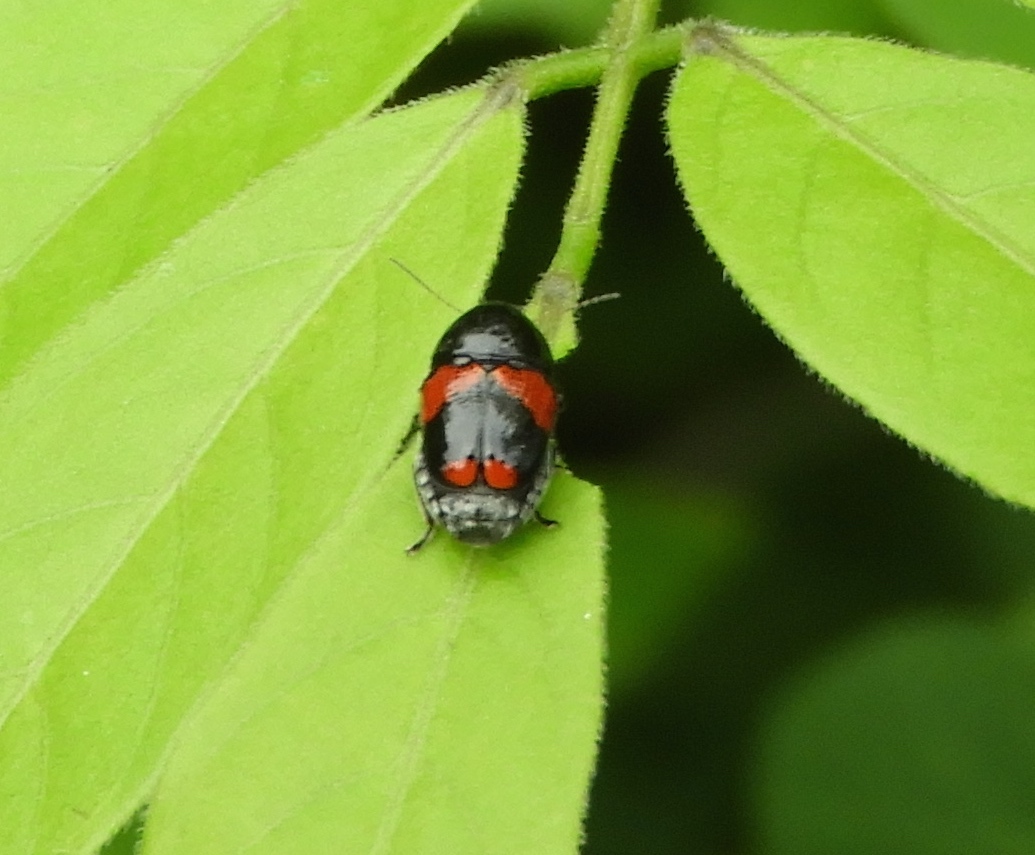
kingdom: Animalia
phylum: Arthropoda
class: Insecta
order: Coleoptera
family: Chrysomelidae
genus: Griburius
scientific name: Griburius
